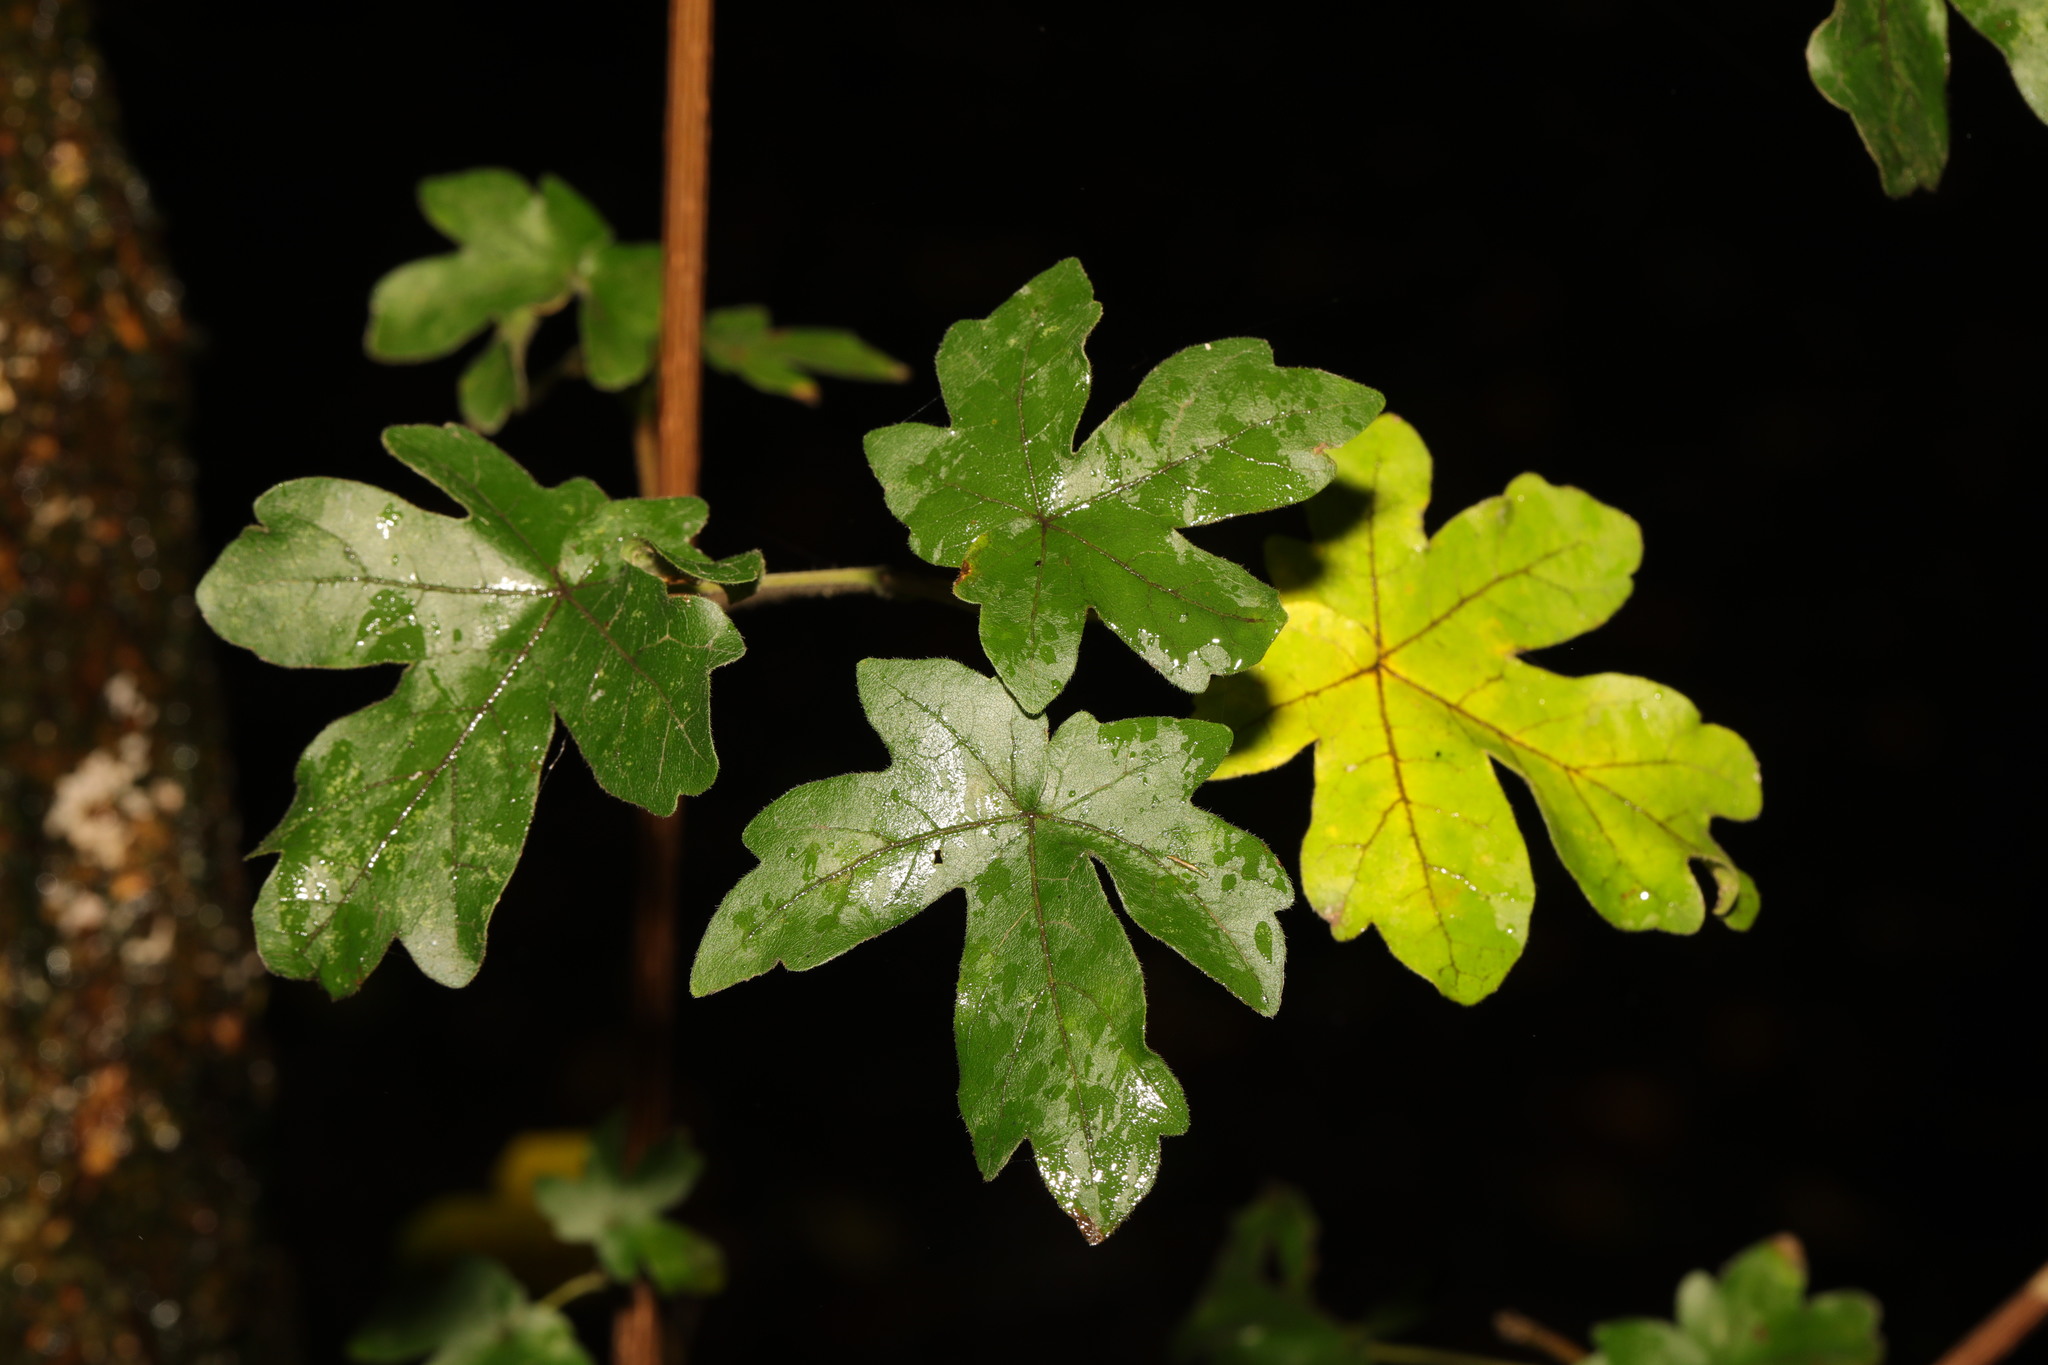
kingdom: Plantae
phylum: Tracheophyta
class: Magnoliopsida
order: Sapindales
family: Sapindaceae
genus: Acer
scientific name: Acer campestre
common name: Field maple
